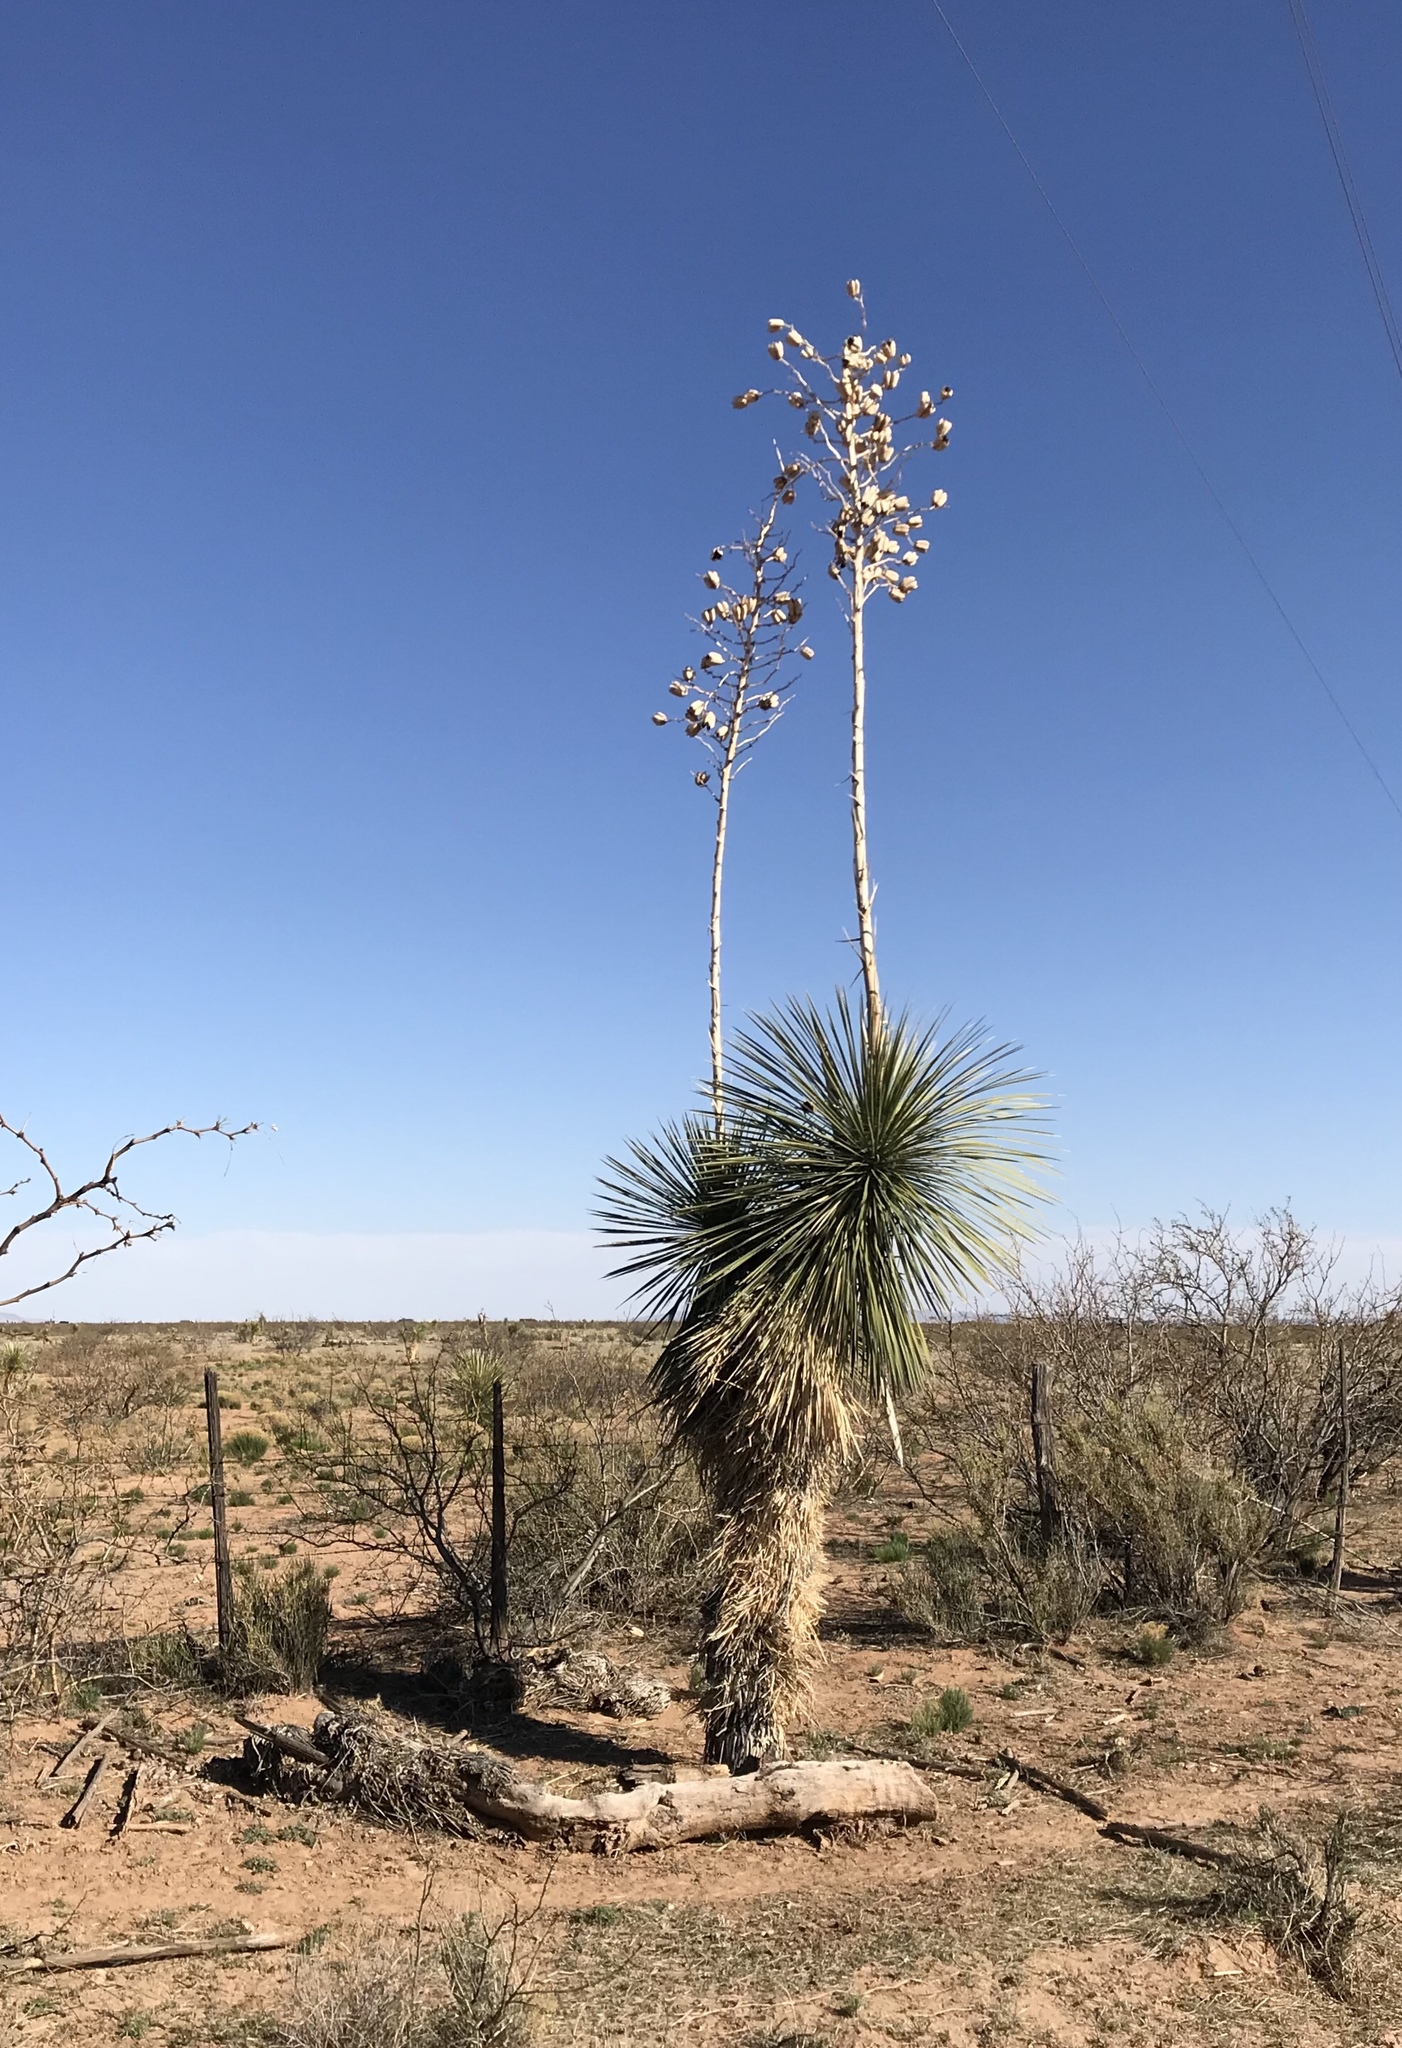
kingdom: Plantae
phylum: Tracheophyta
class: Liliopsida
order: Asparagales
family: Asparagaceae
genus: Yucca
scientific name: Yucca elata
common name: Palmella
